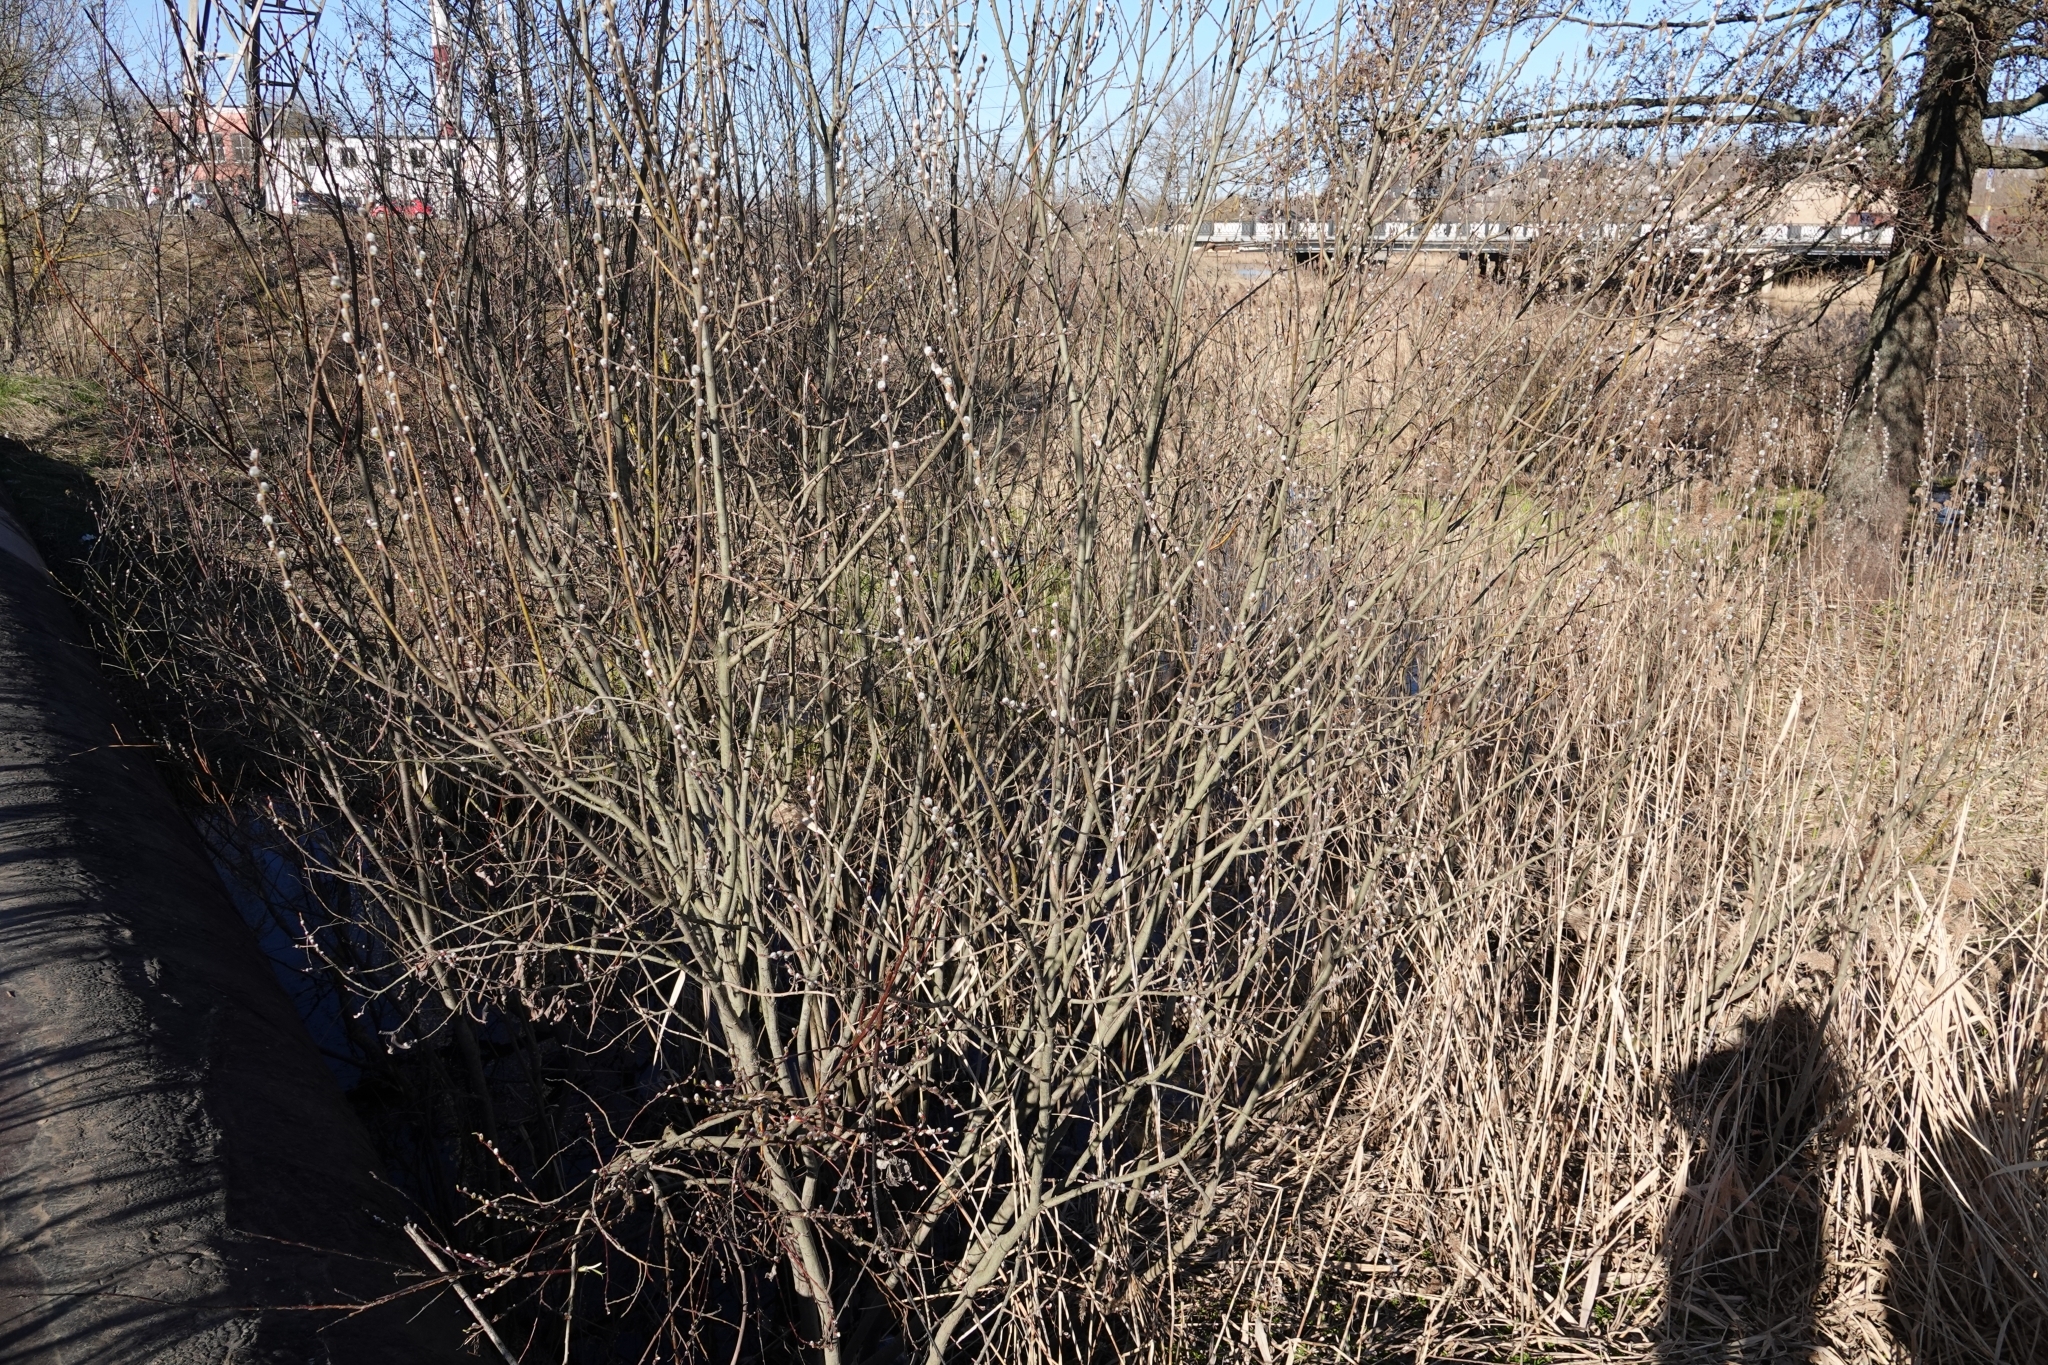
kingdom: Plantae
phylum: Tracheophyta
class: Magnoliopsida
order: Malpighiales
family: Salicaceae
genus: Salix
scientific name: Salix cinerea
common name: Common sallow
